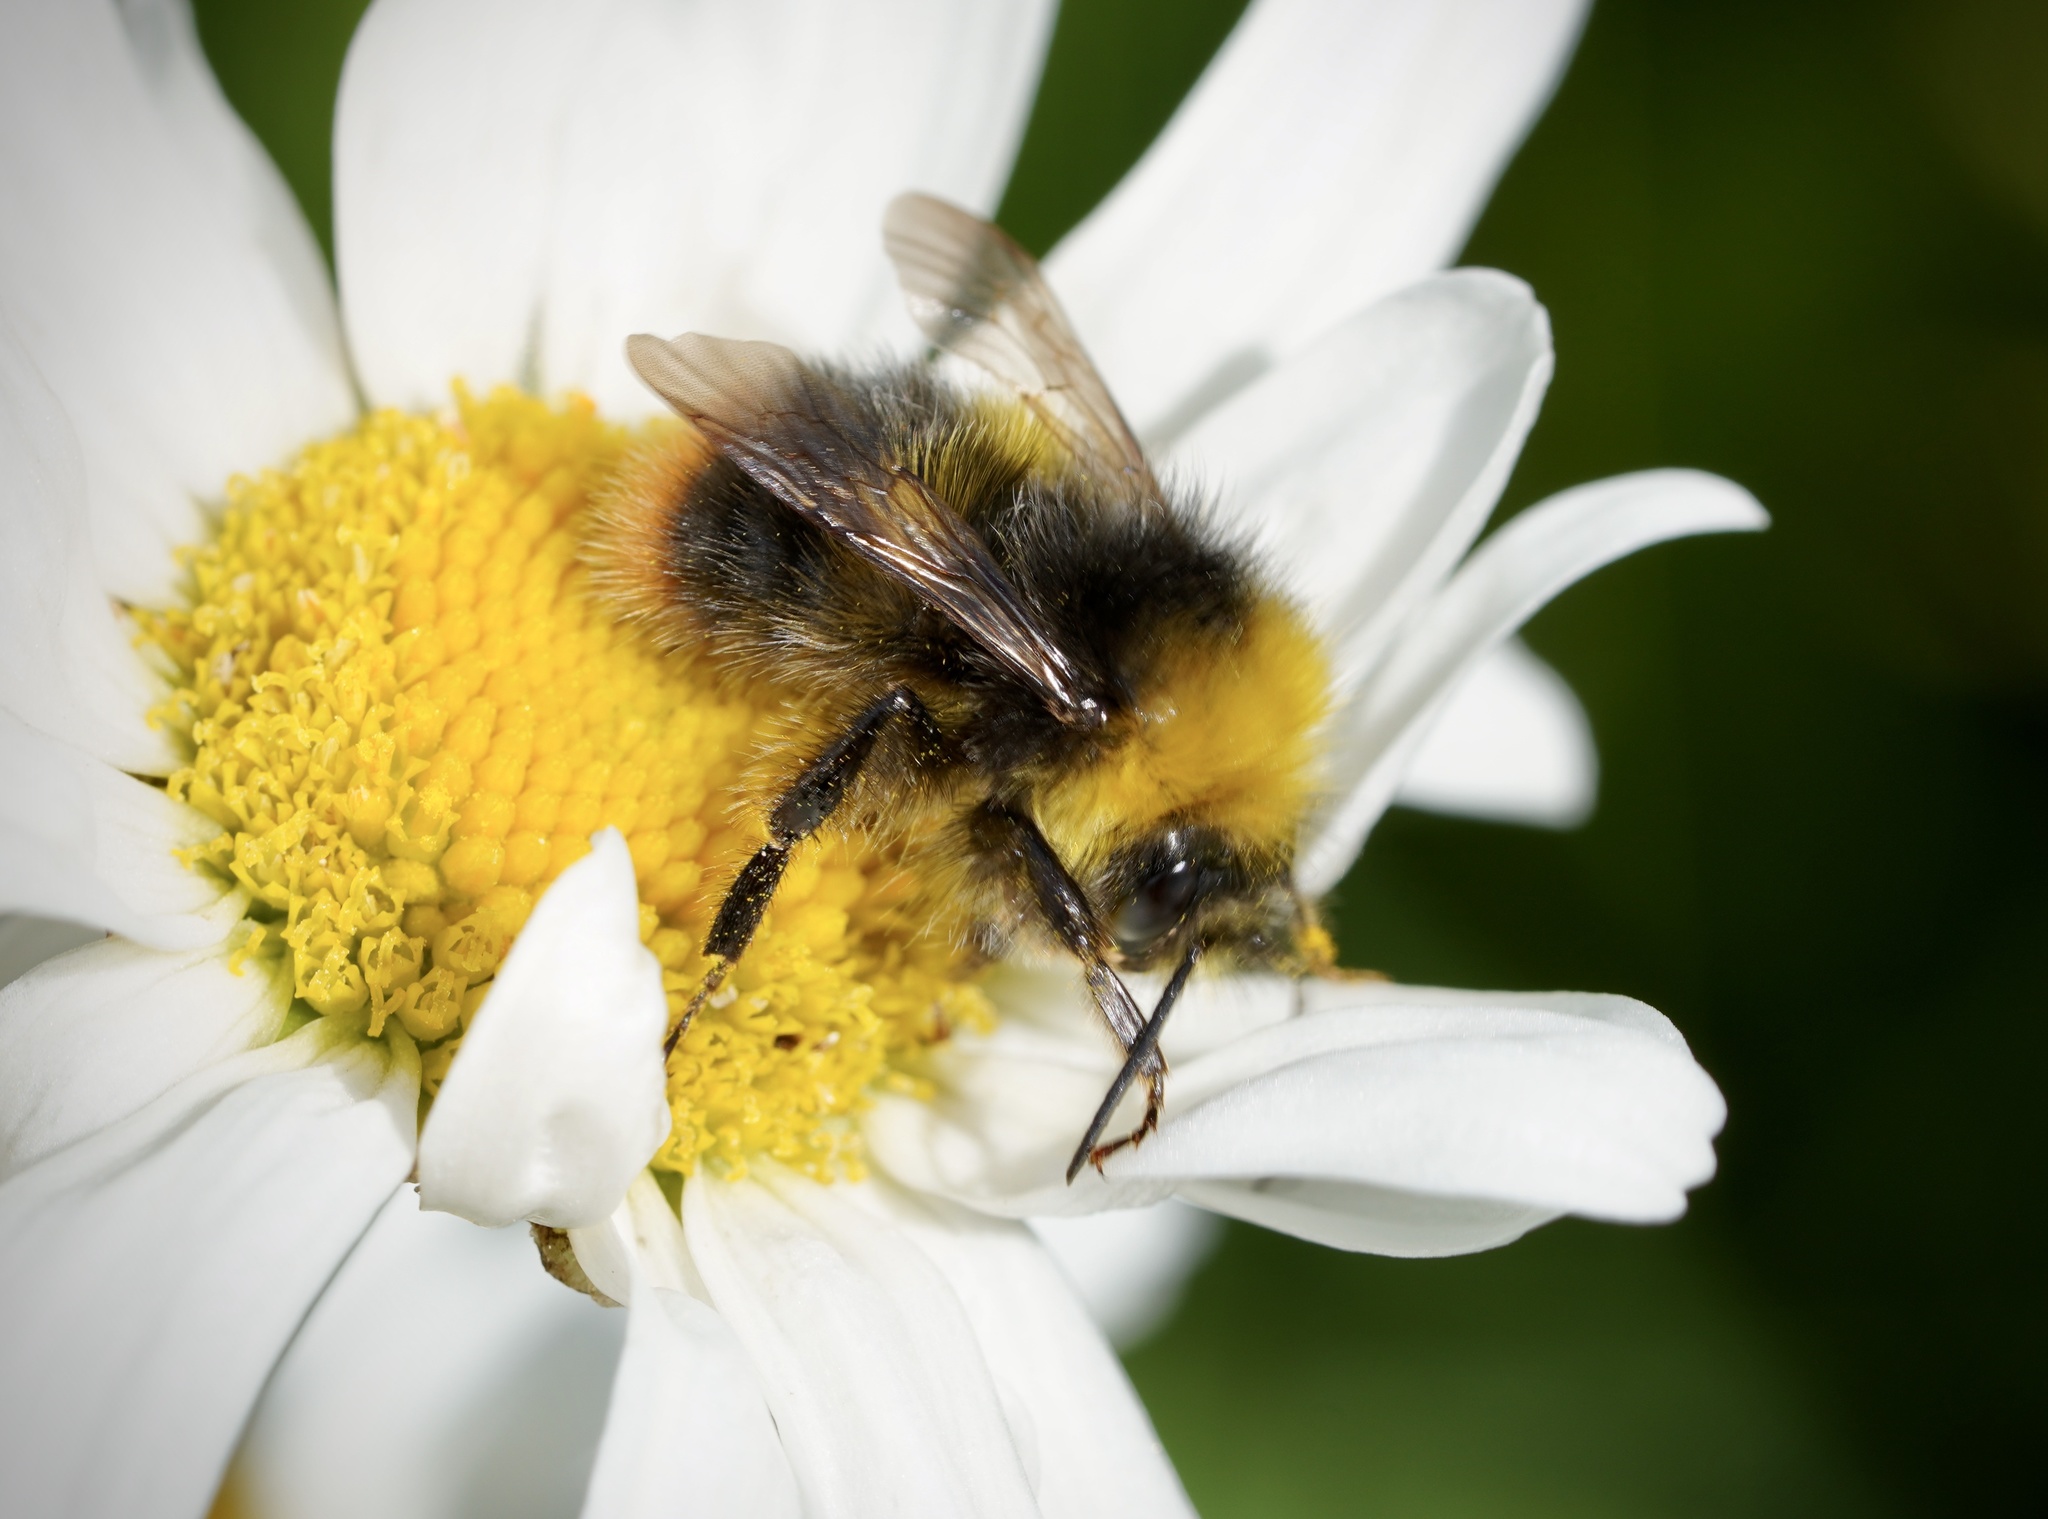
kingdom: Animalia
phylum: Arthropoda
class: Insecta
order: Hymenoptera
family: Apidae
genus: Bombus
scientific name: Bombus pratorum
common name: Early humble-bee
